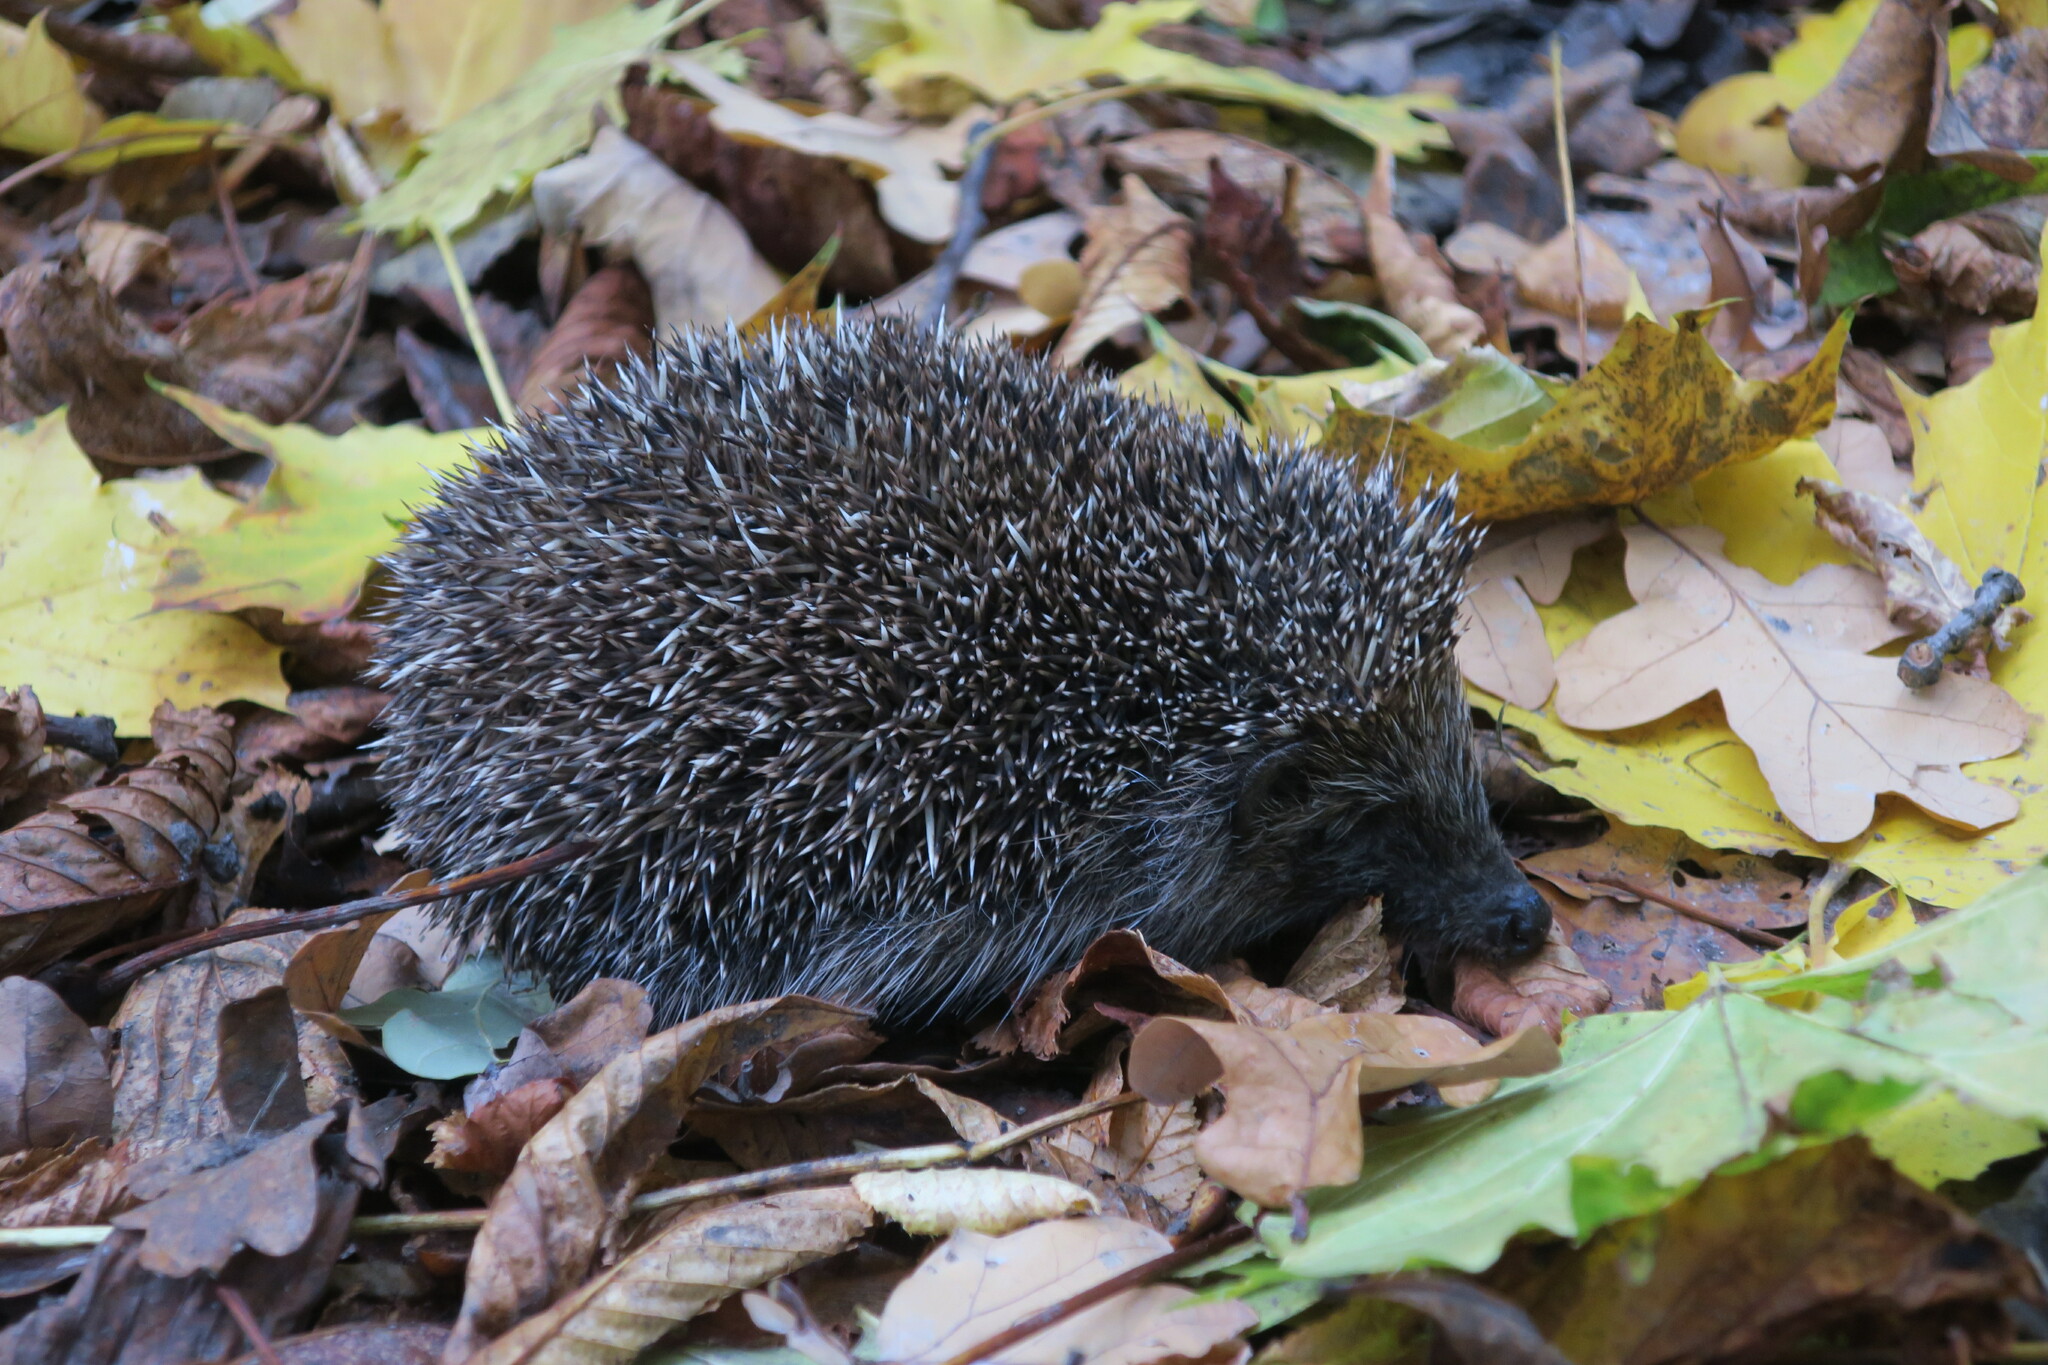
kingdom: Animalia
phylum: Chordata
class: Mammalia
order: Erinaceomorpha
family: Erinaceidae
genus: Erinaceus
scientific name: Erinaceus europaeus
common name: West european hedgehog
